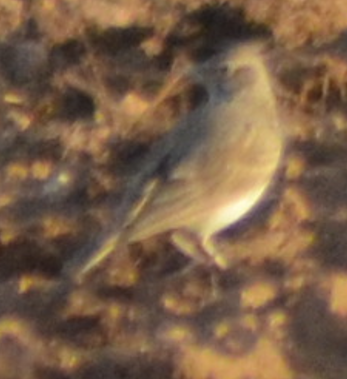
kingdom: Animalia
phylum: Chordata
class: Aves
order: Passeriformes
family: Alaudidae
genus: Galerida
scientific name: Galerida cristata
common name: Crested lark
